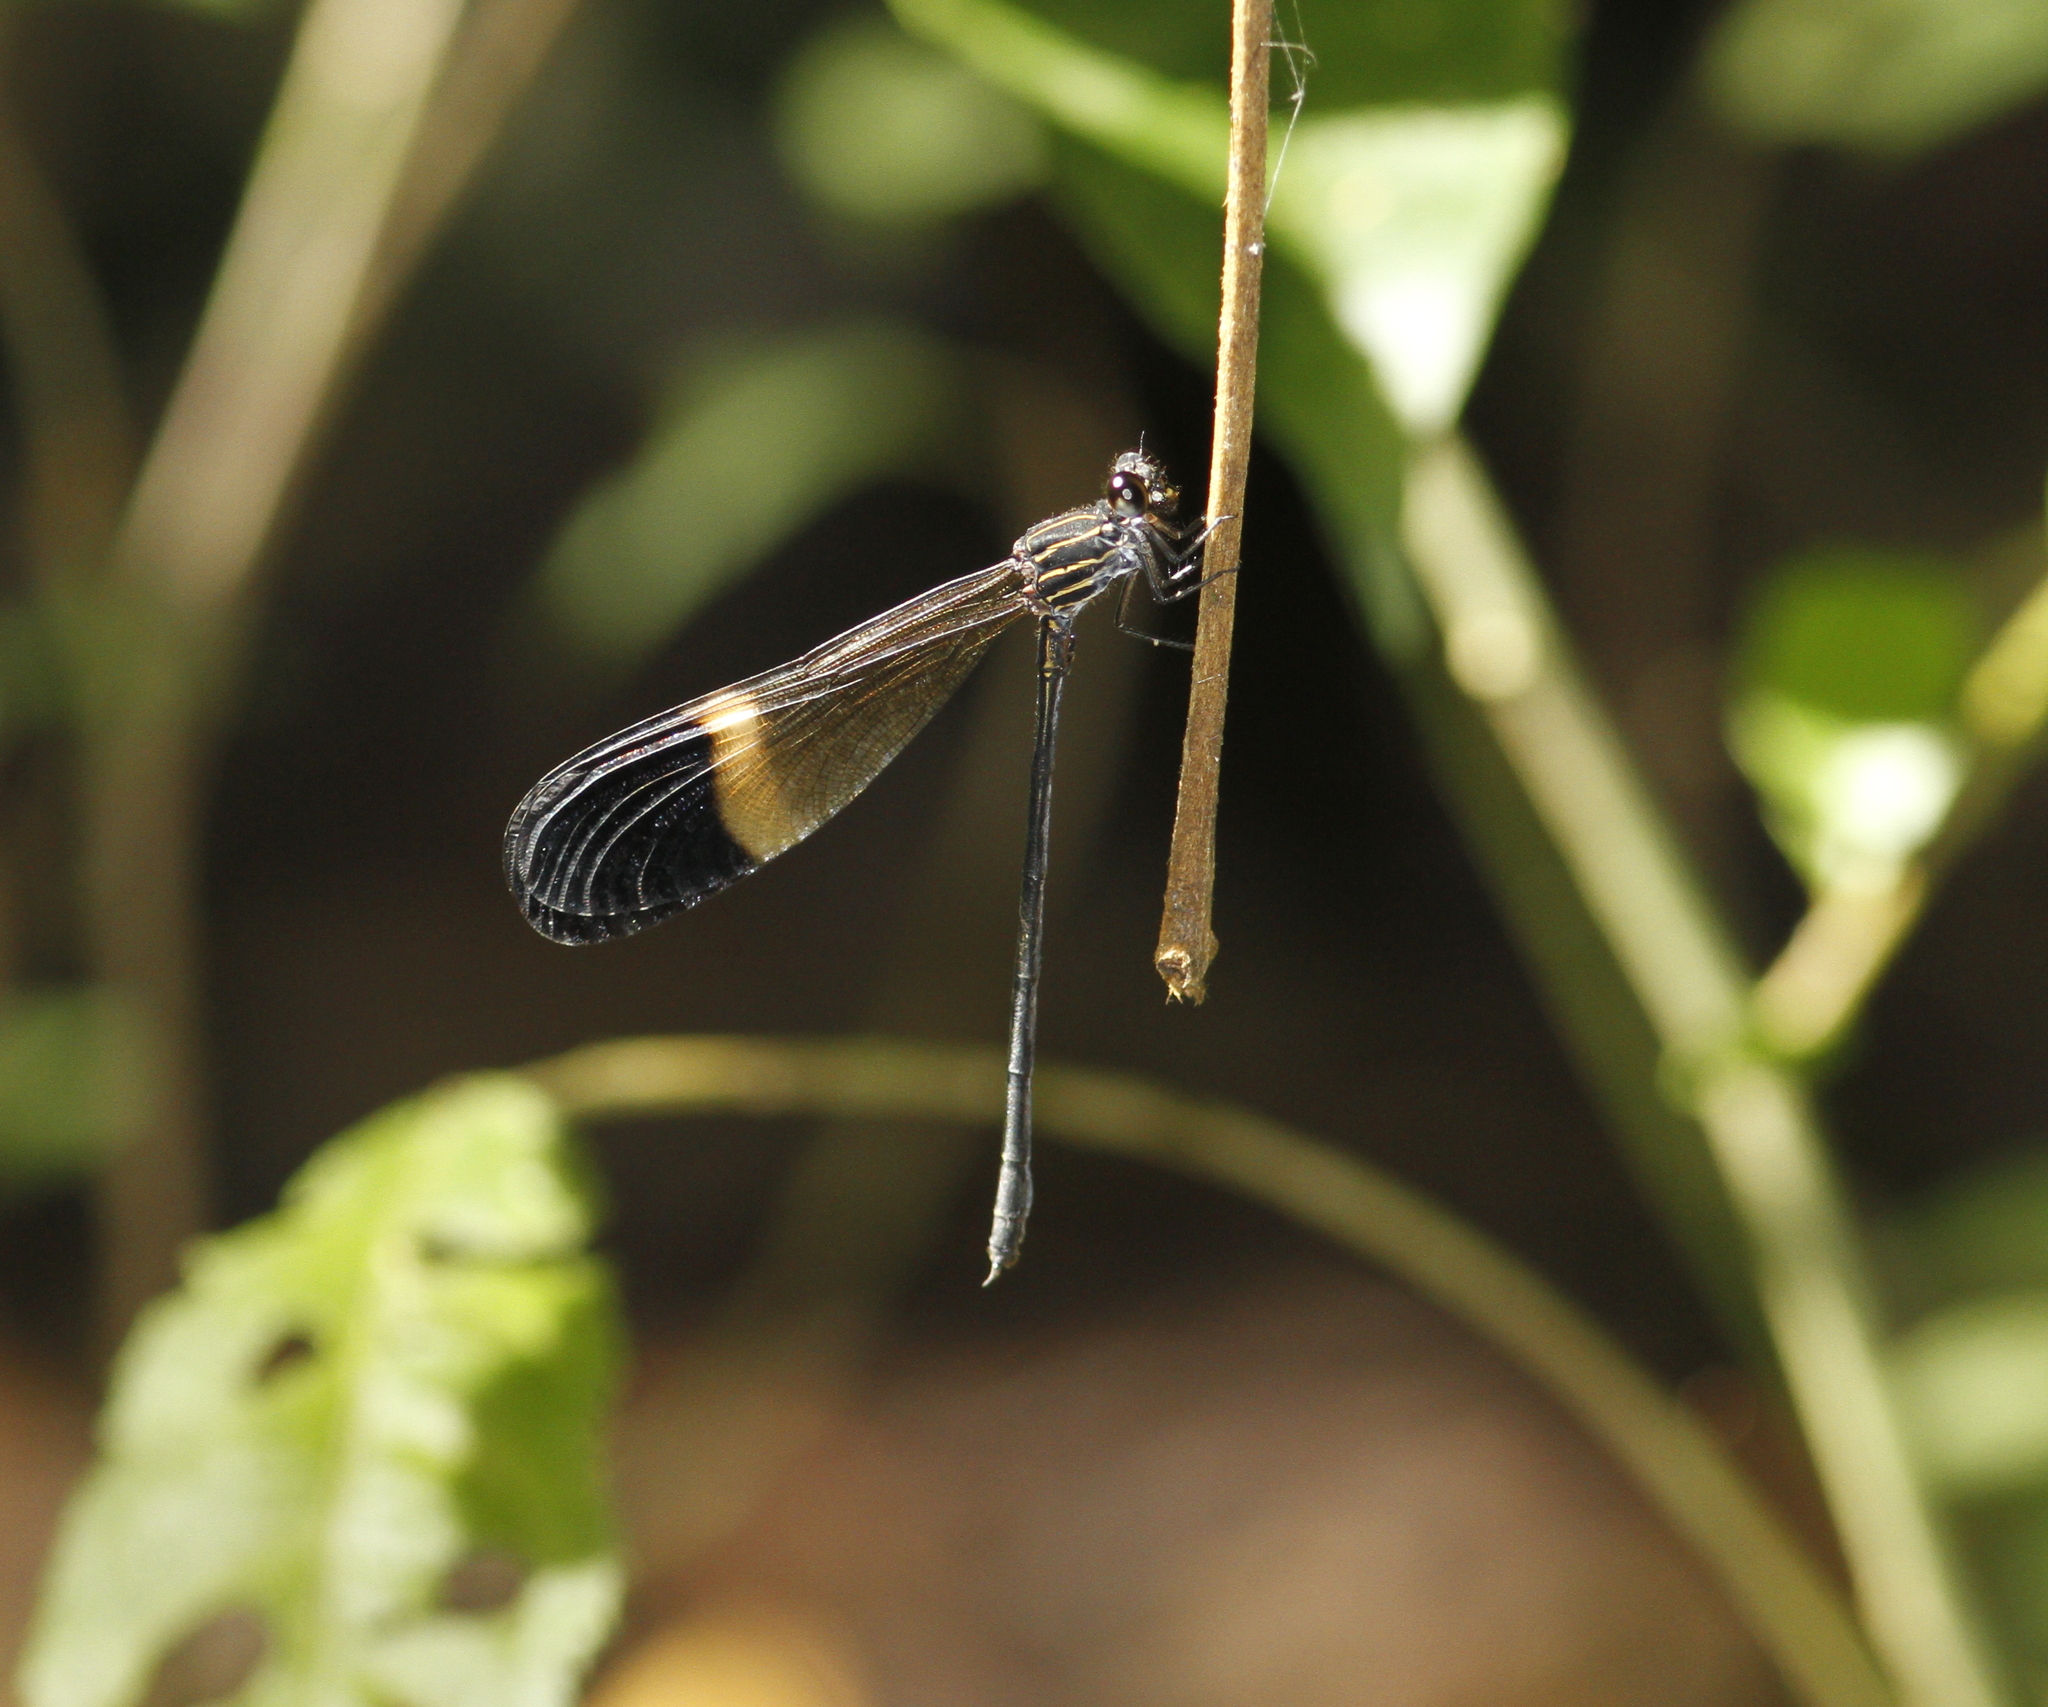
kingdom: Animalia
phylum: Arthropoda
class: Insecta
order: Odonata
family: Polythoridae
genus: Polythore
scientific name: Polythore picta
